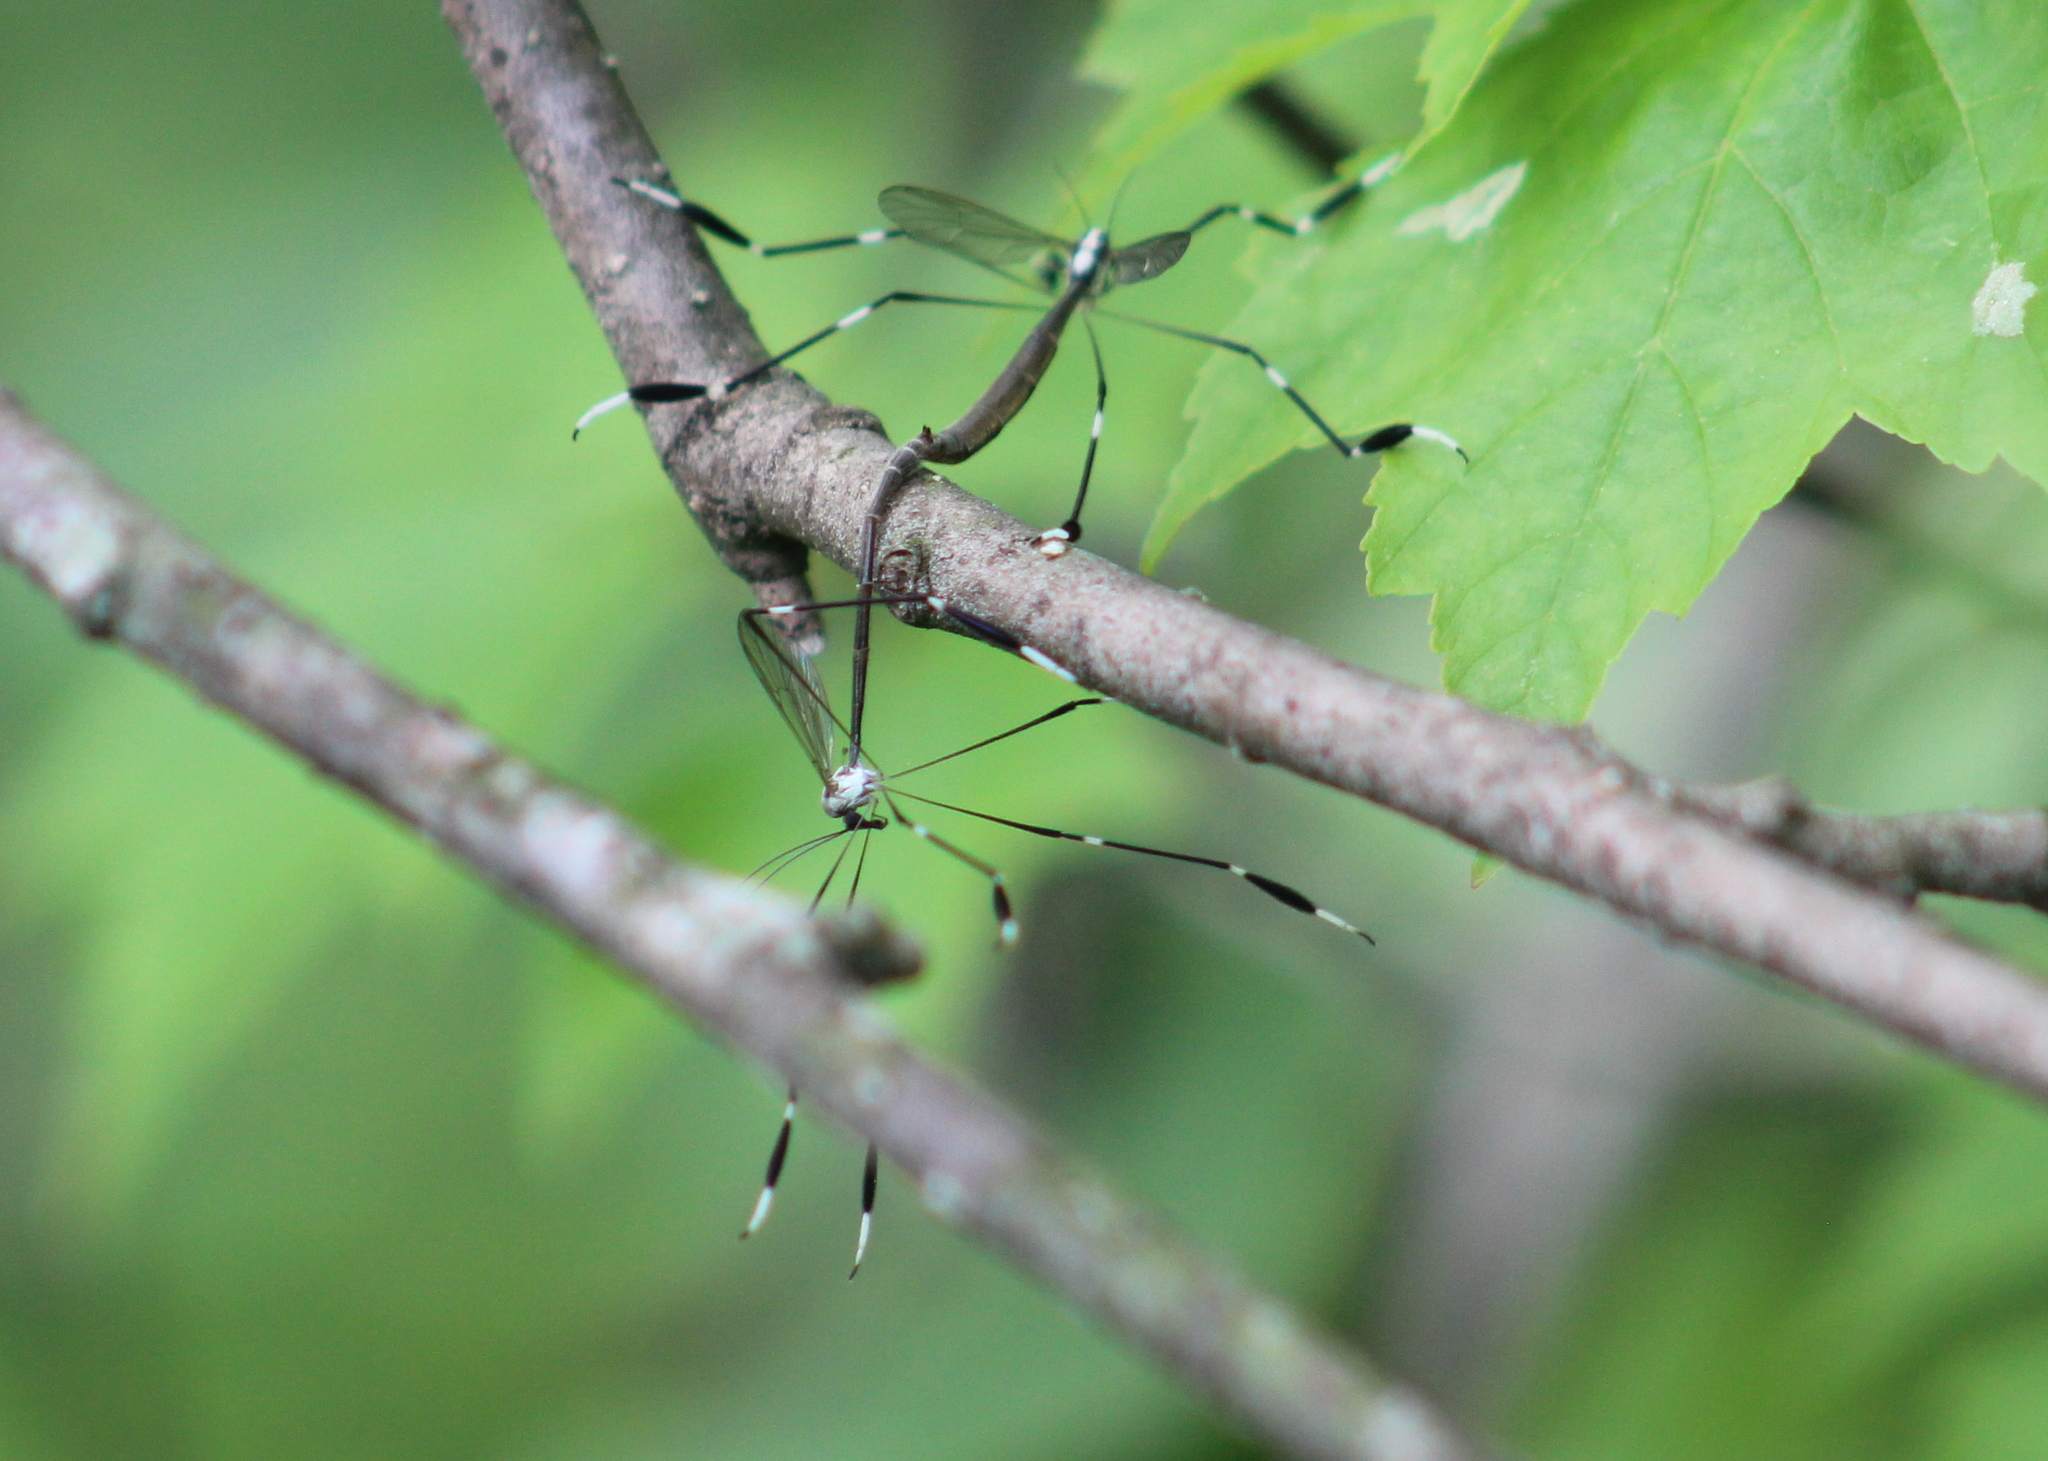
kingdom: Animalia
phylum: Arthropoda
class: Insecta
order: Diptera
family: Ptychopteridae
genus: Bittacomorpha
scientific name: Bittacomorpha clavipes
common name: Eastern phantom crane fly
